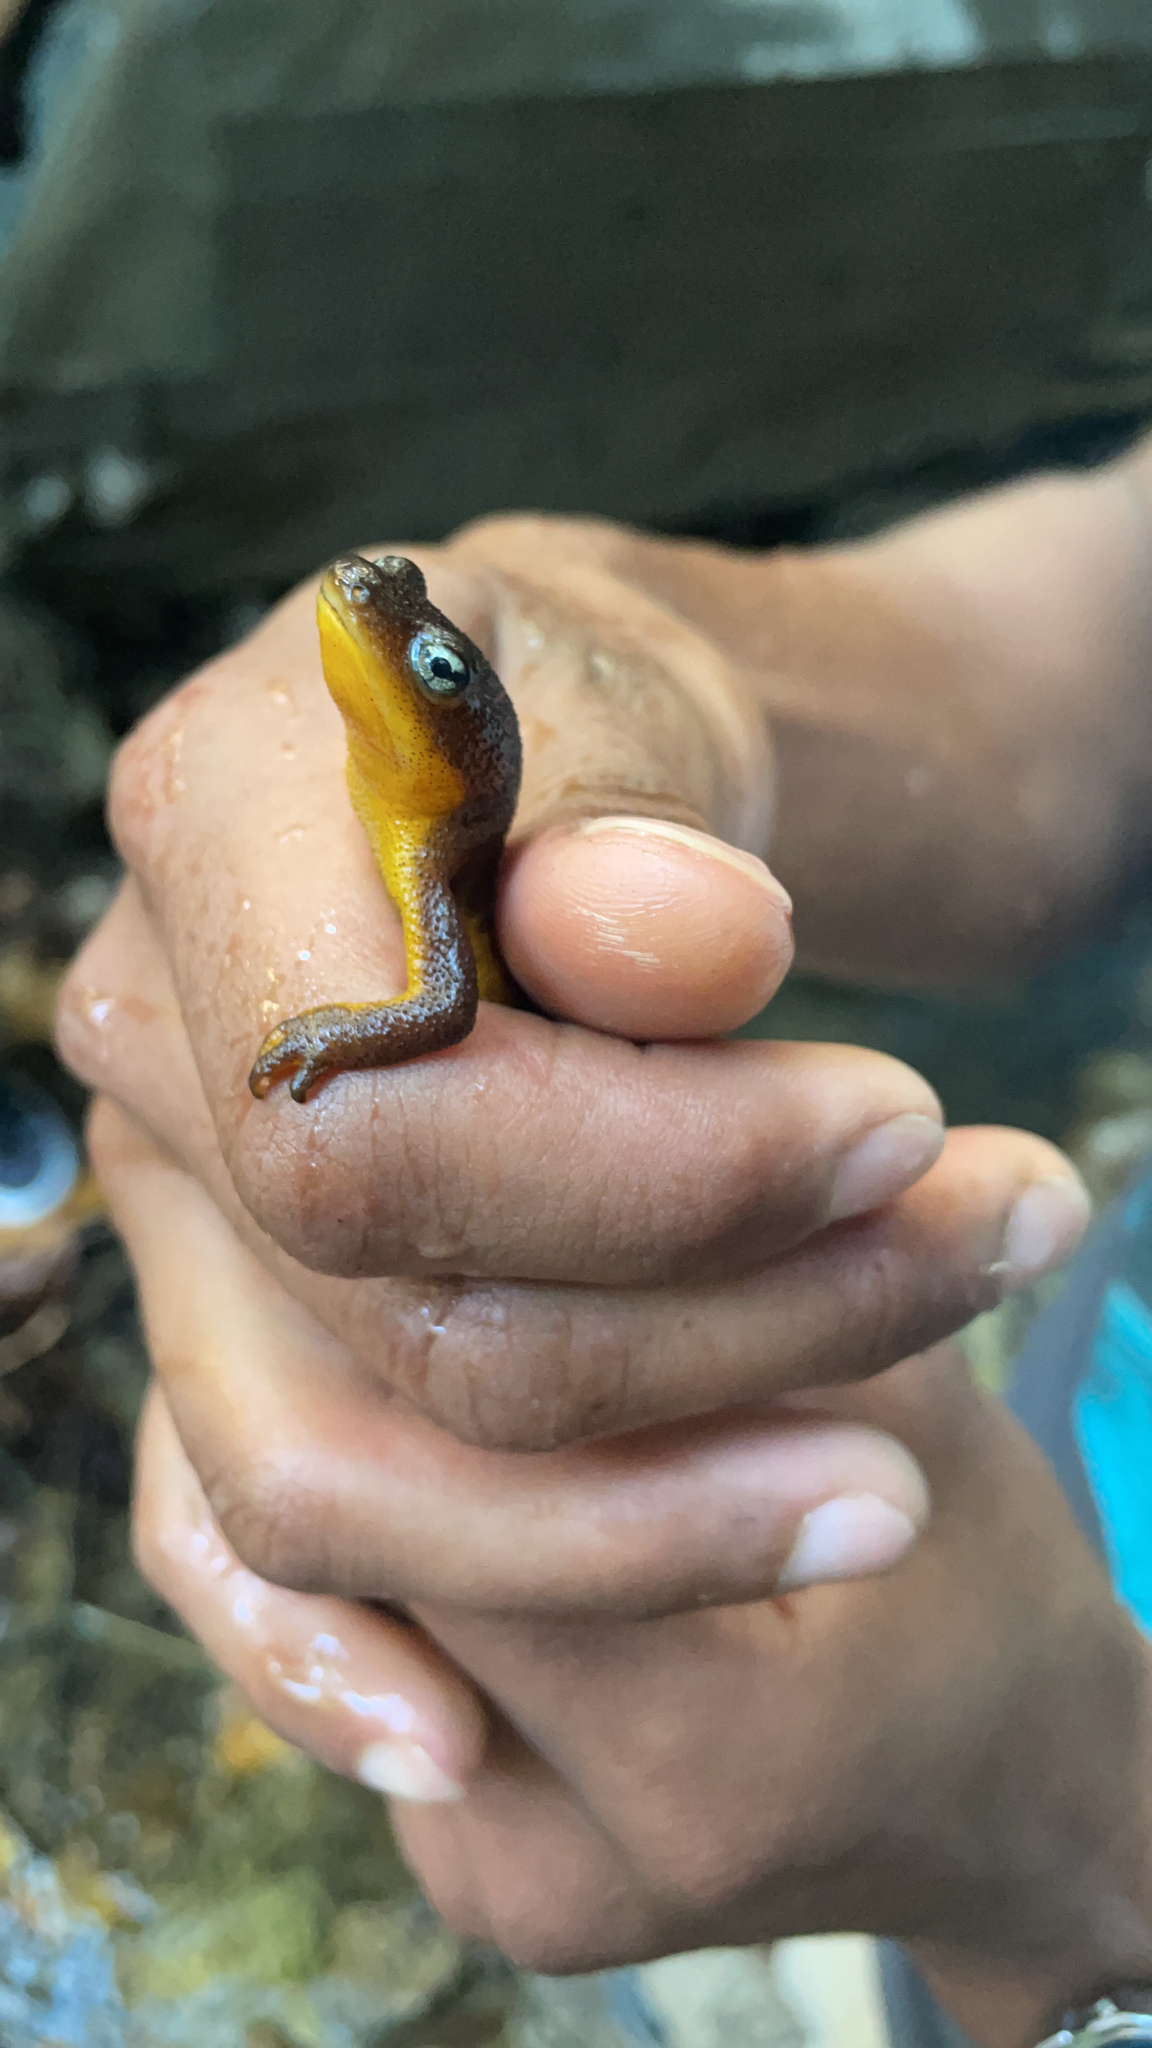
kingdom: Animalia
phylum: Chordata
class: Amphibia
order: Caudata
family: Salamandridae
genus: Taricha
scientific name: Taricha torosa
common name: California newt
